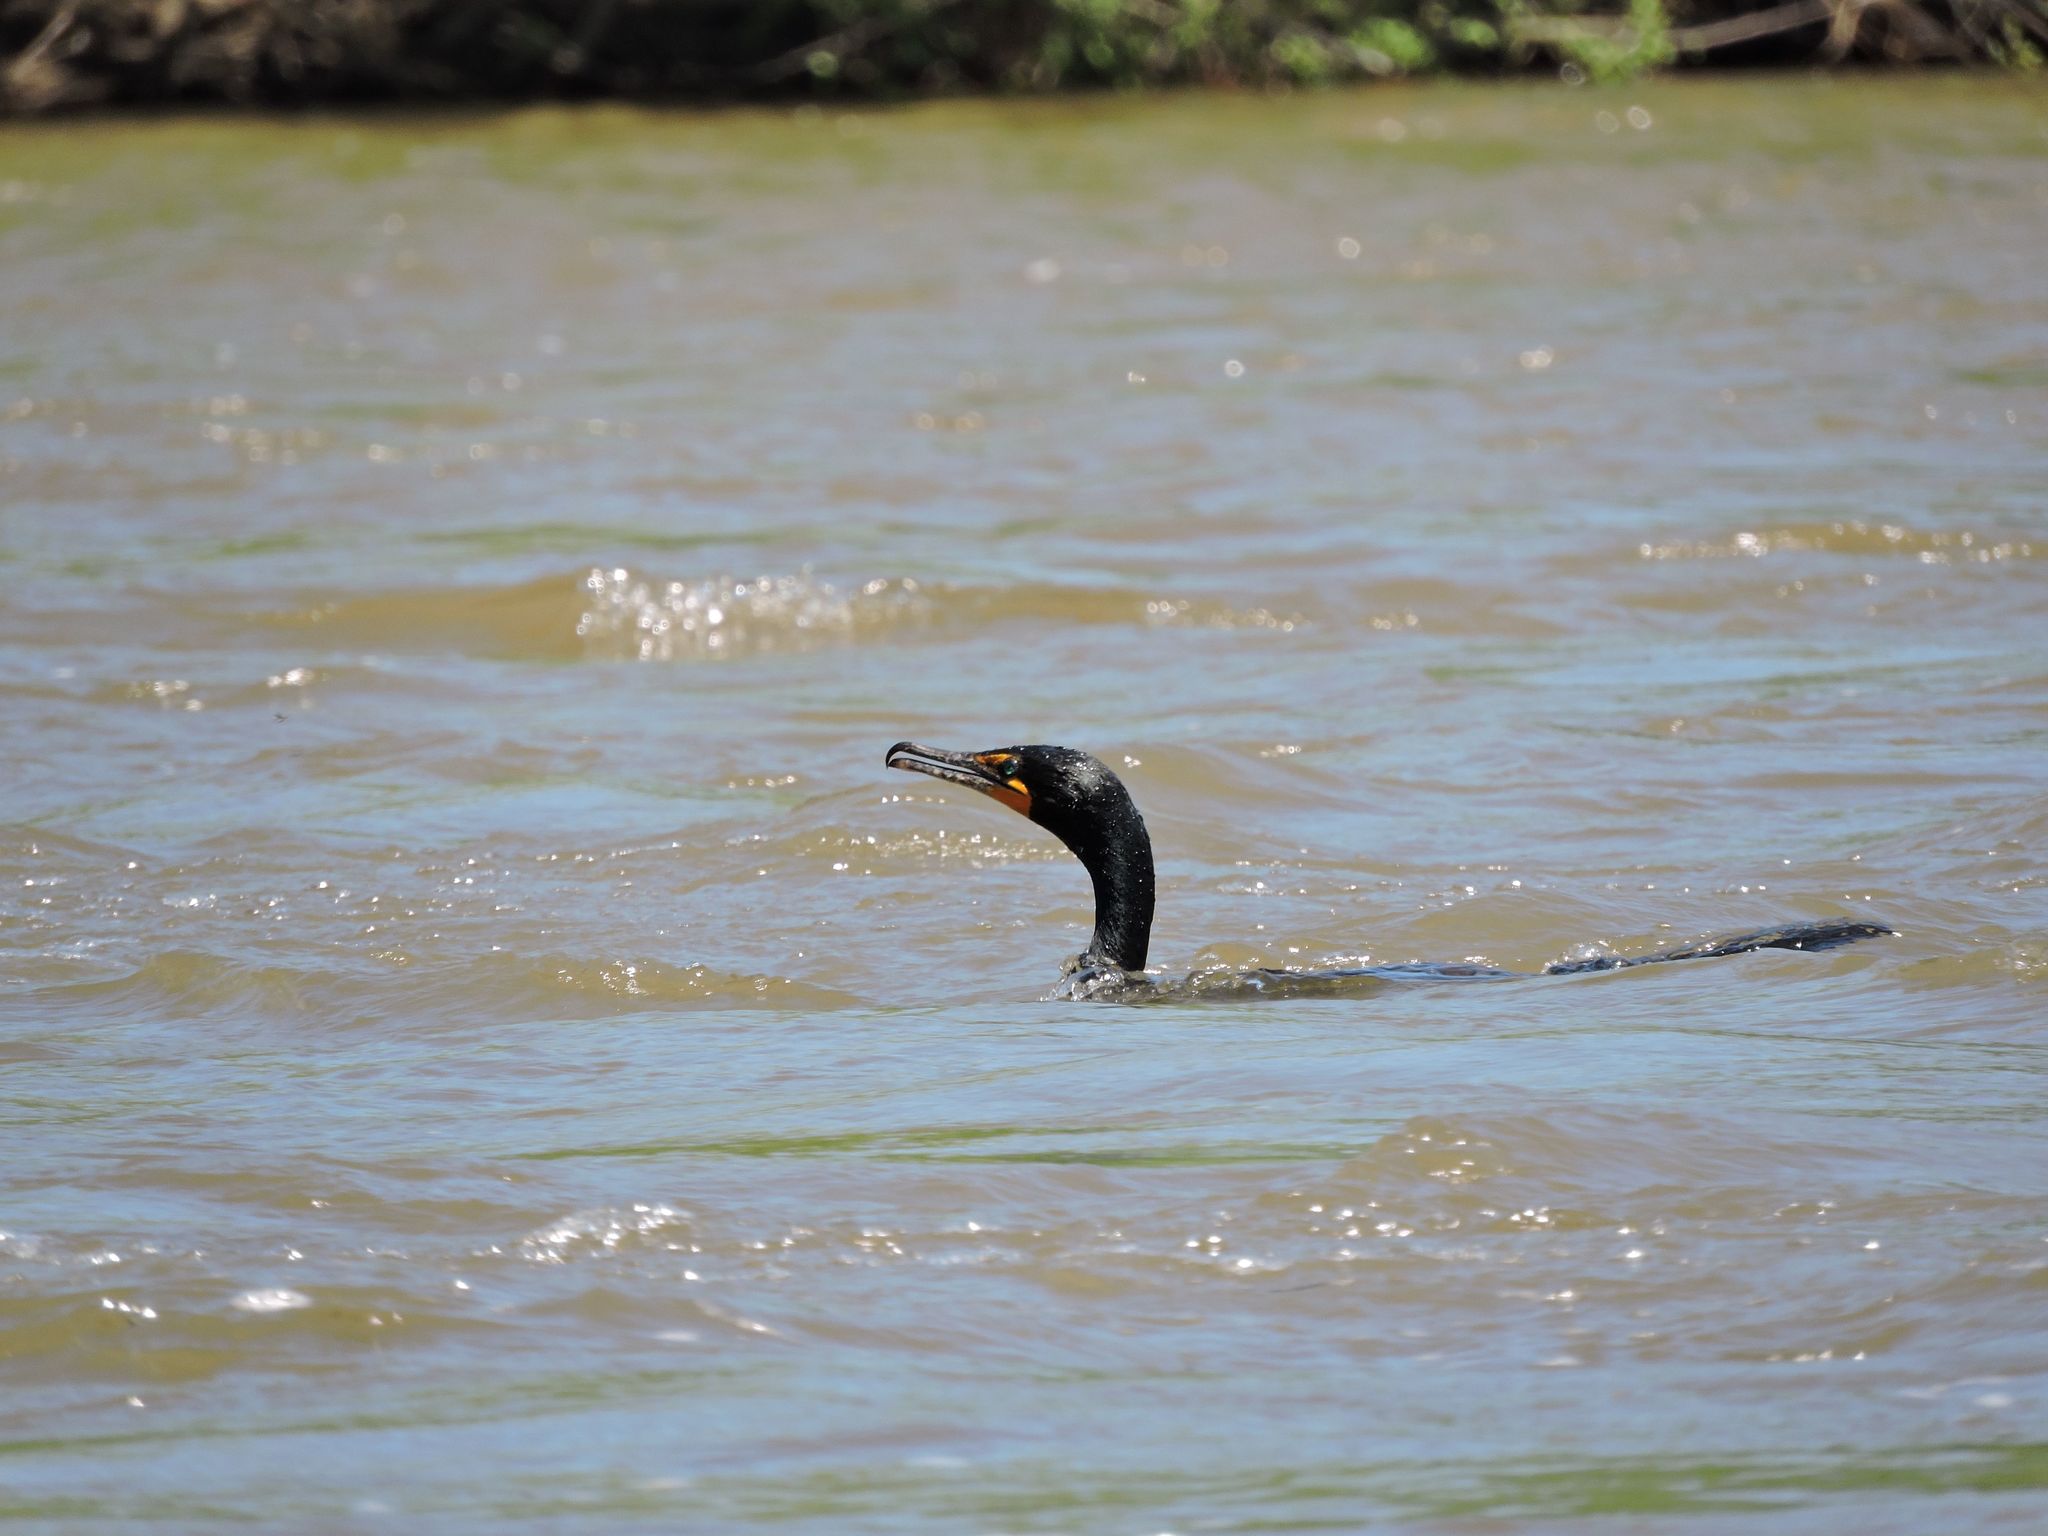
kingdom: Animalia
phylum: Chordata
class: Aves
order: Suliformes
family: Phalacrocoracidae
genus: Phalacrocorax
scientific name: Phalacrocorax auritus
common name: Double-crested cormorant
